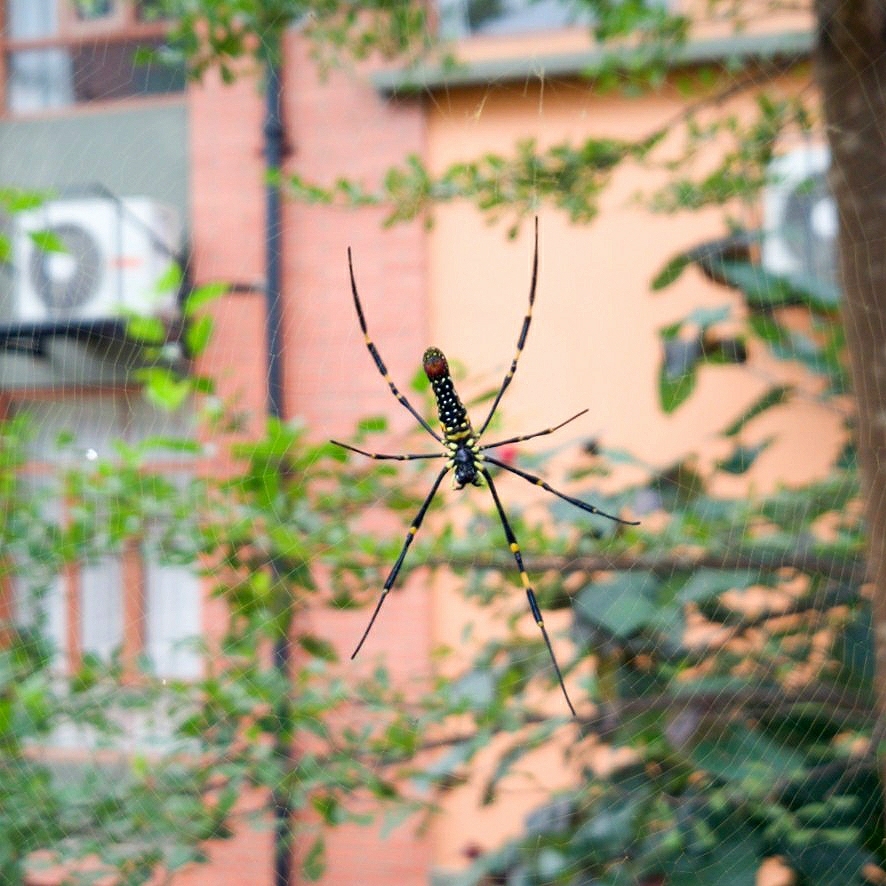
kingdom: Animalia
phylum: Arthropoda
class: Arachnida
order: Araneae
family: Araneidae
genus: Nephila
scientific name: Nephila pilipes
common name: Giant golden orb weaver
